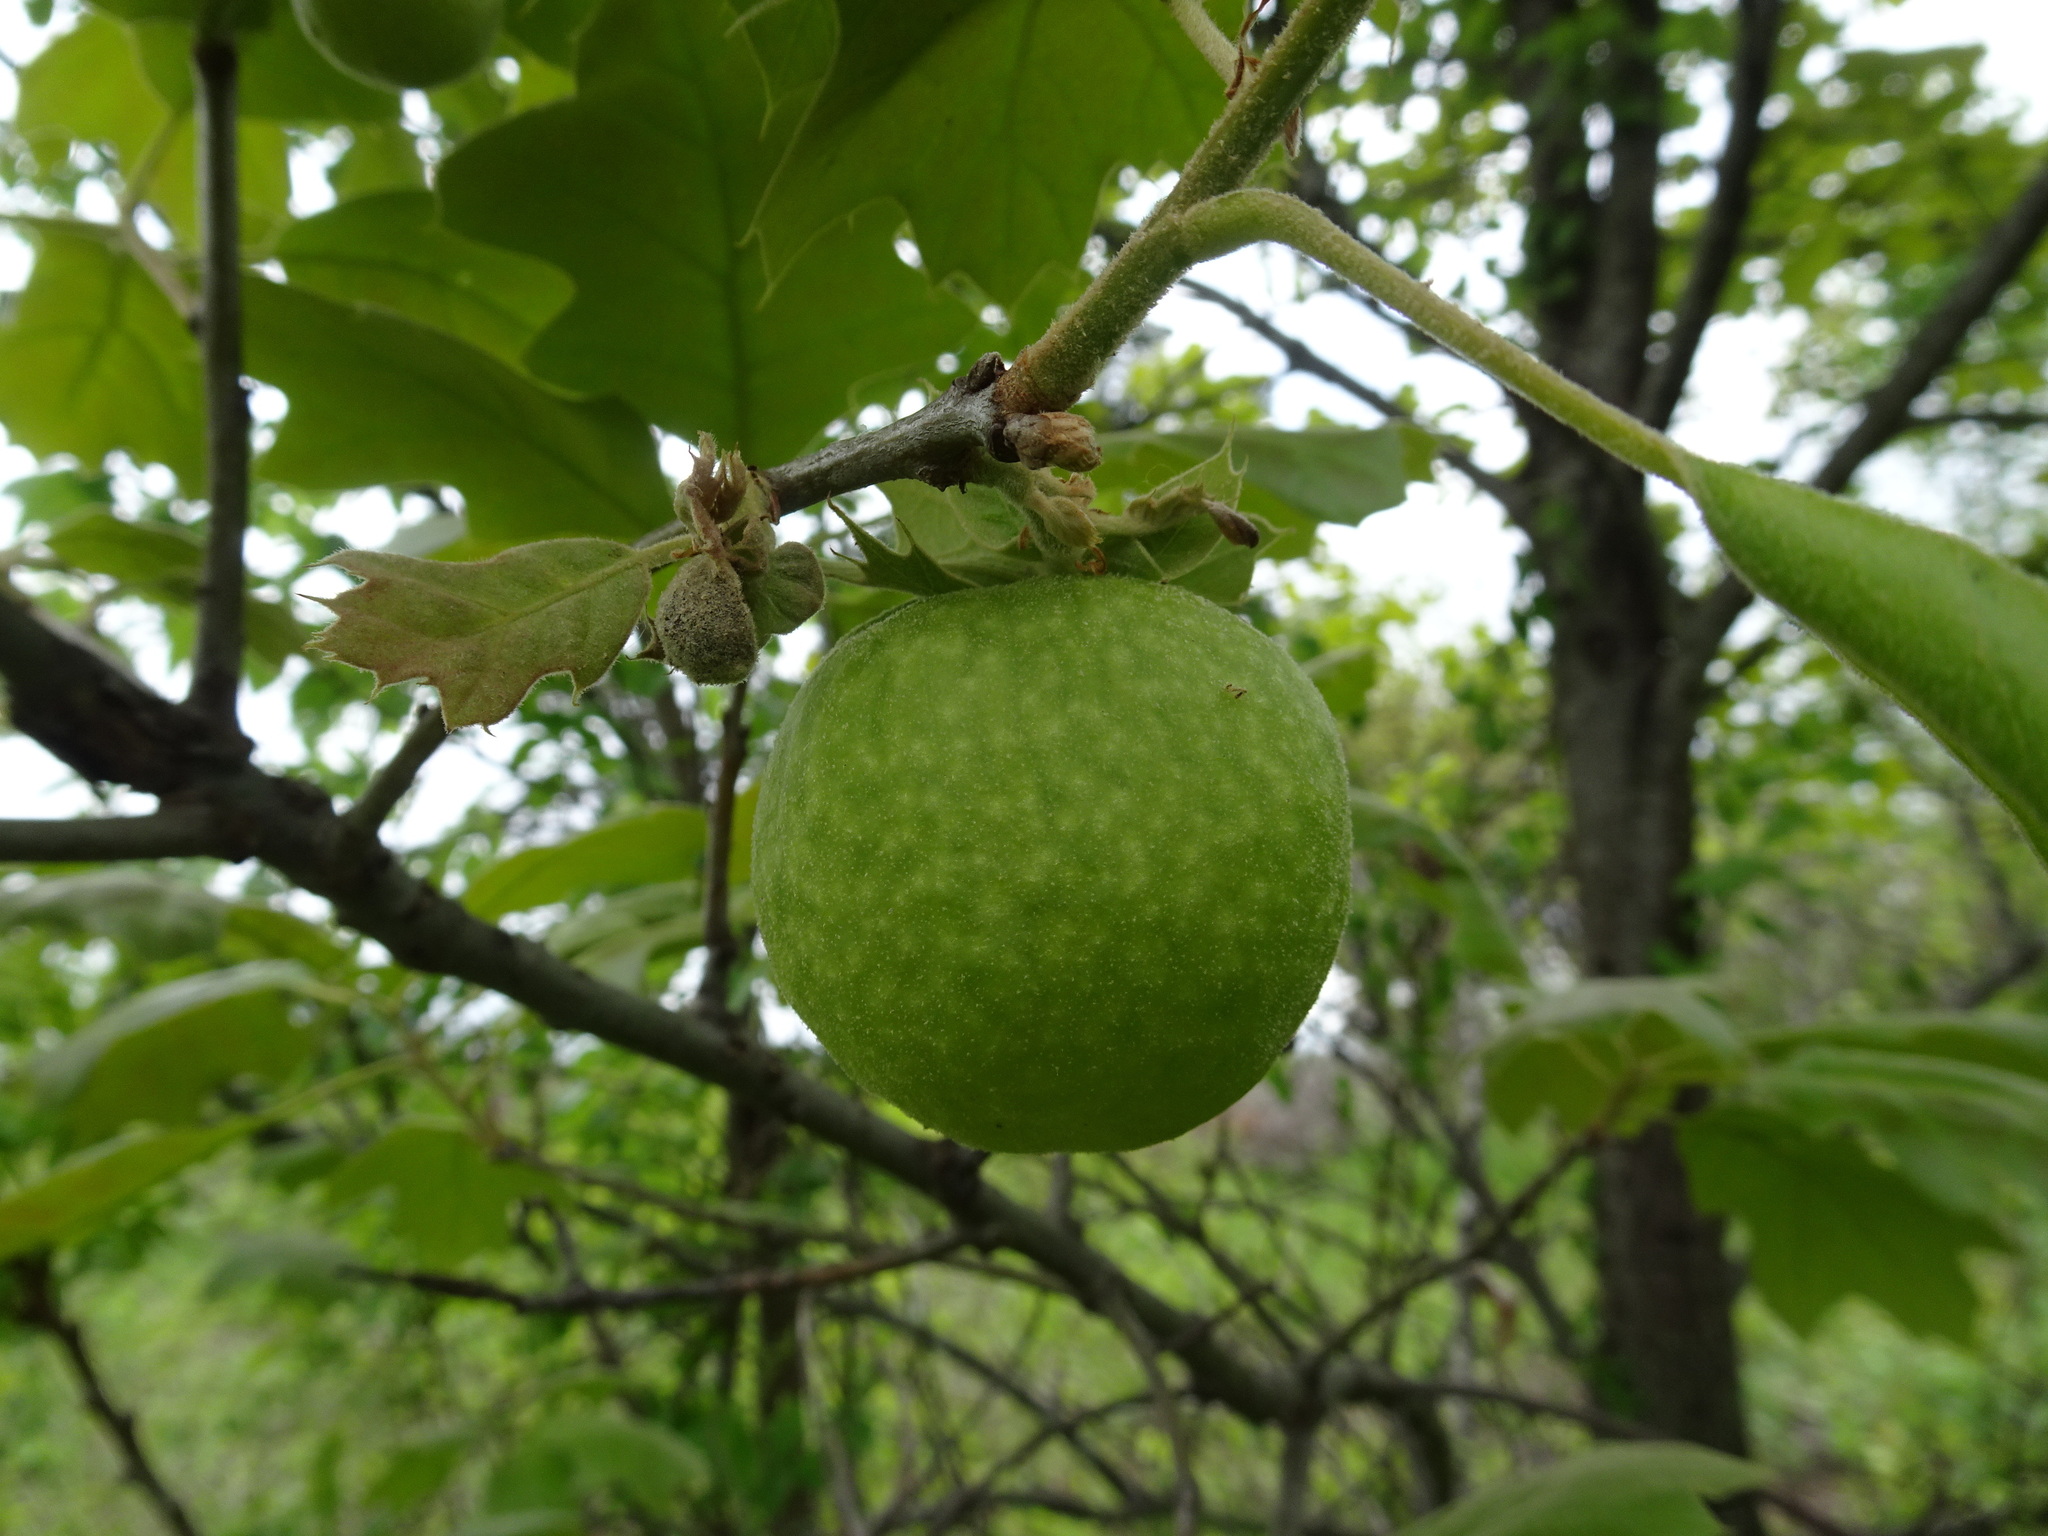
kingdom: Animalia
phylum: Arthropoda
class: Insecta
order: Hymenoptera
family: Cynipidae
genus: Amphibolips
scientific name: Amphibolips
